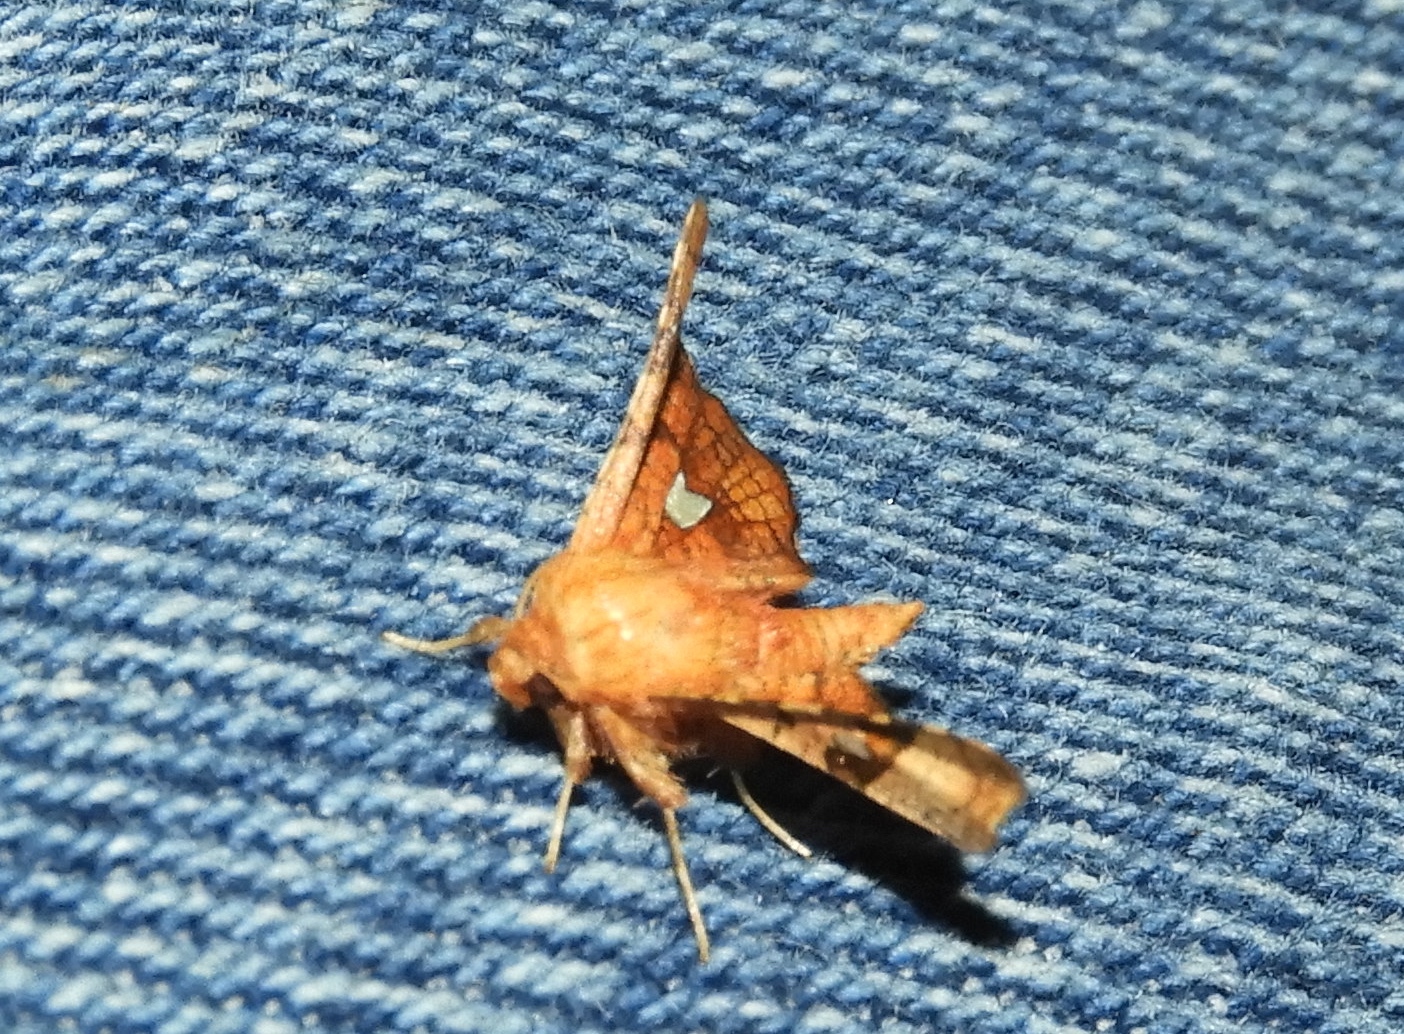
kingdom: Animalia
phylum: Arthropoda
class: Insecta
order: Lepidoptera
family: Thyrididae
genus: Dysodia
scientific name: Dysodia
